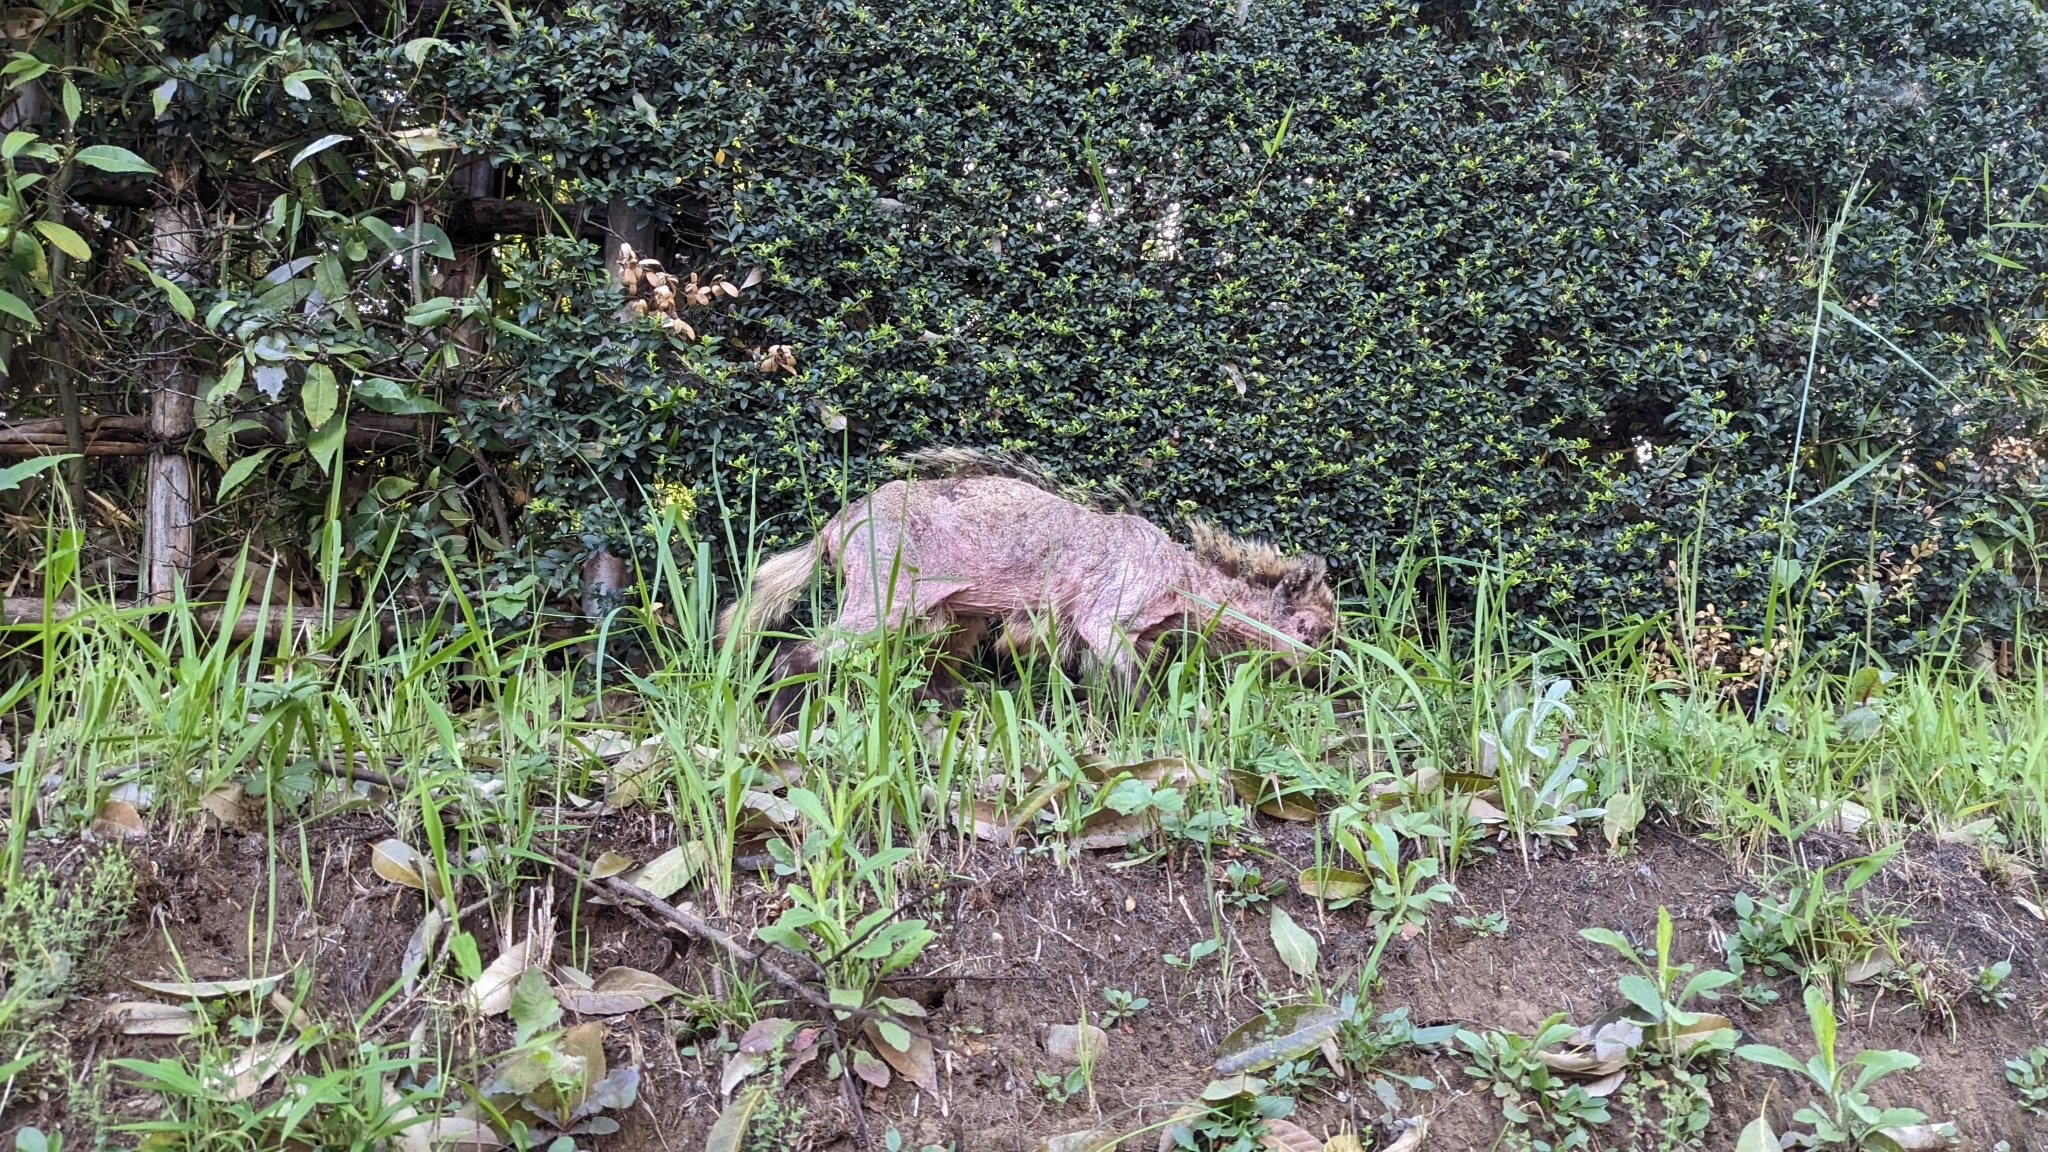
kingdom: Animalia
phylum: Chordata
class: Mammalia
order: Carnivora
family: Canidae
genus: Nyctereutes
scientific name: Nyctereutes
